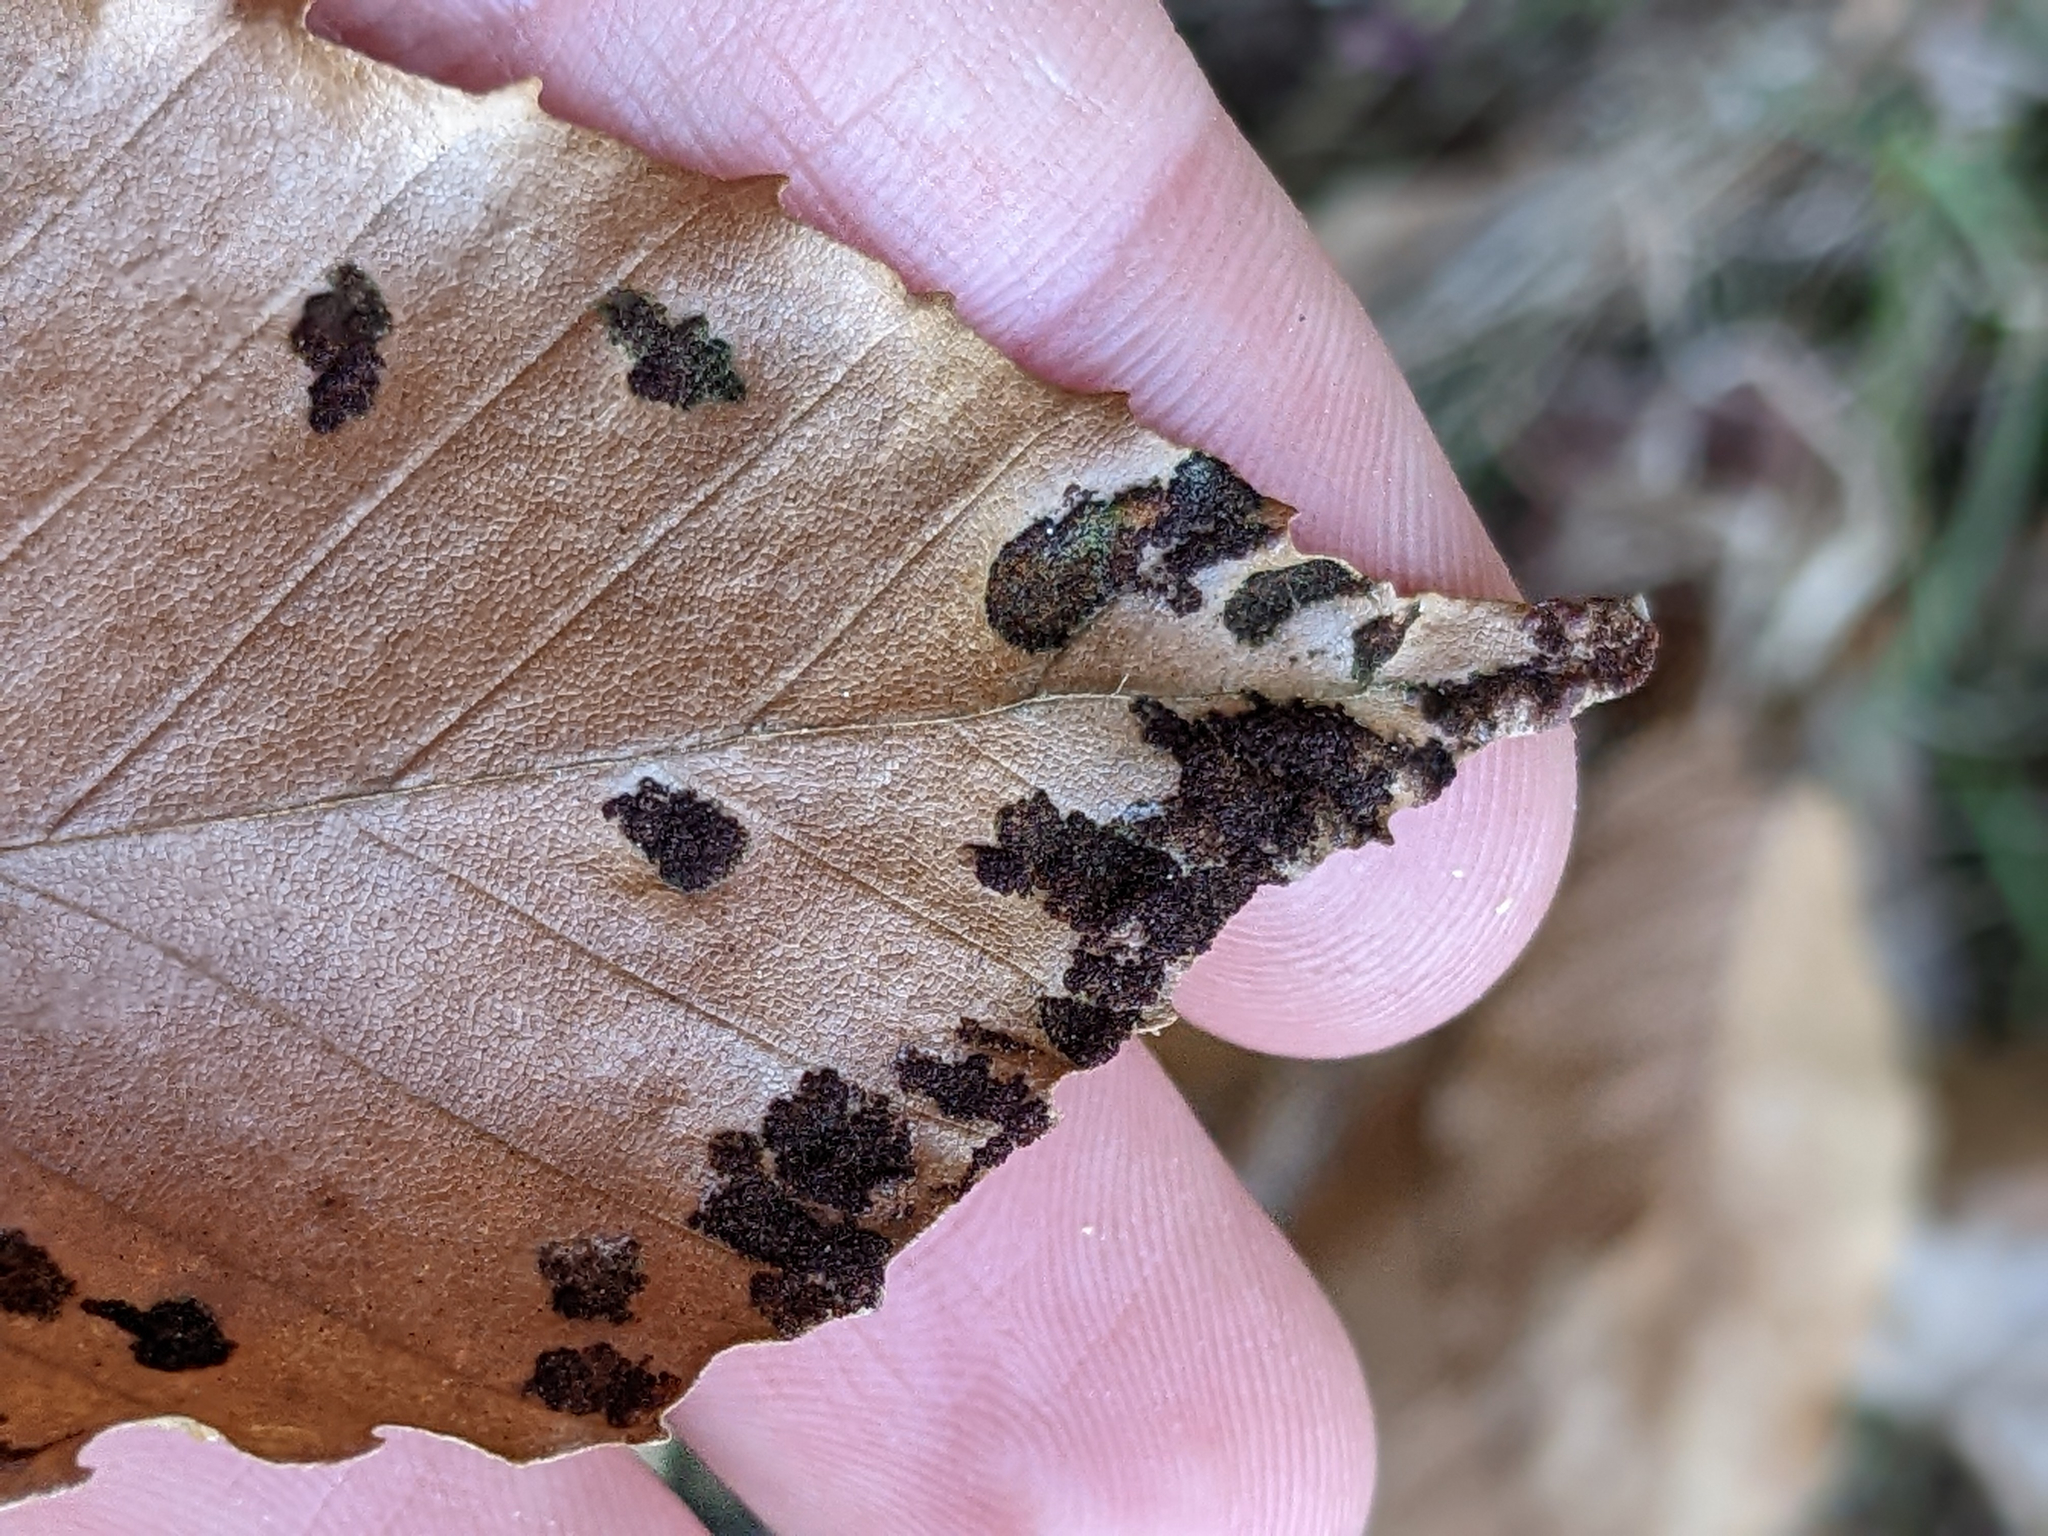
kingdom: Animalia
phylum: Arthropoda
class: Arachnida
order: Trombidiformes
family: Eriophyidae
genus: Acalitus
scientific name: Acalitus
